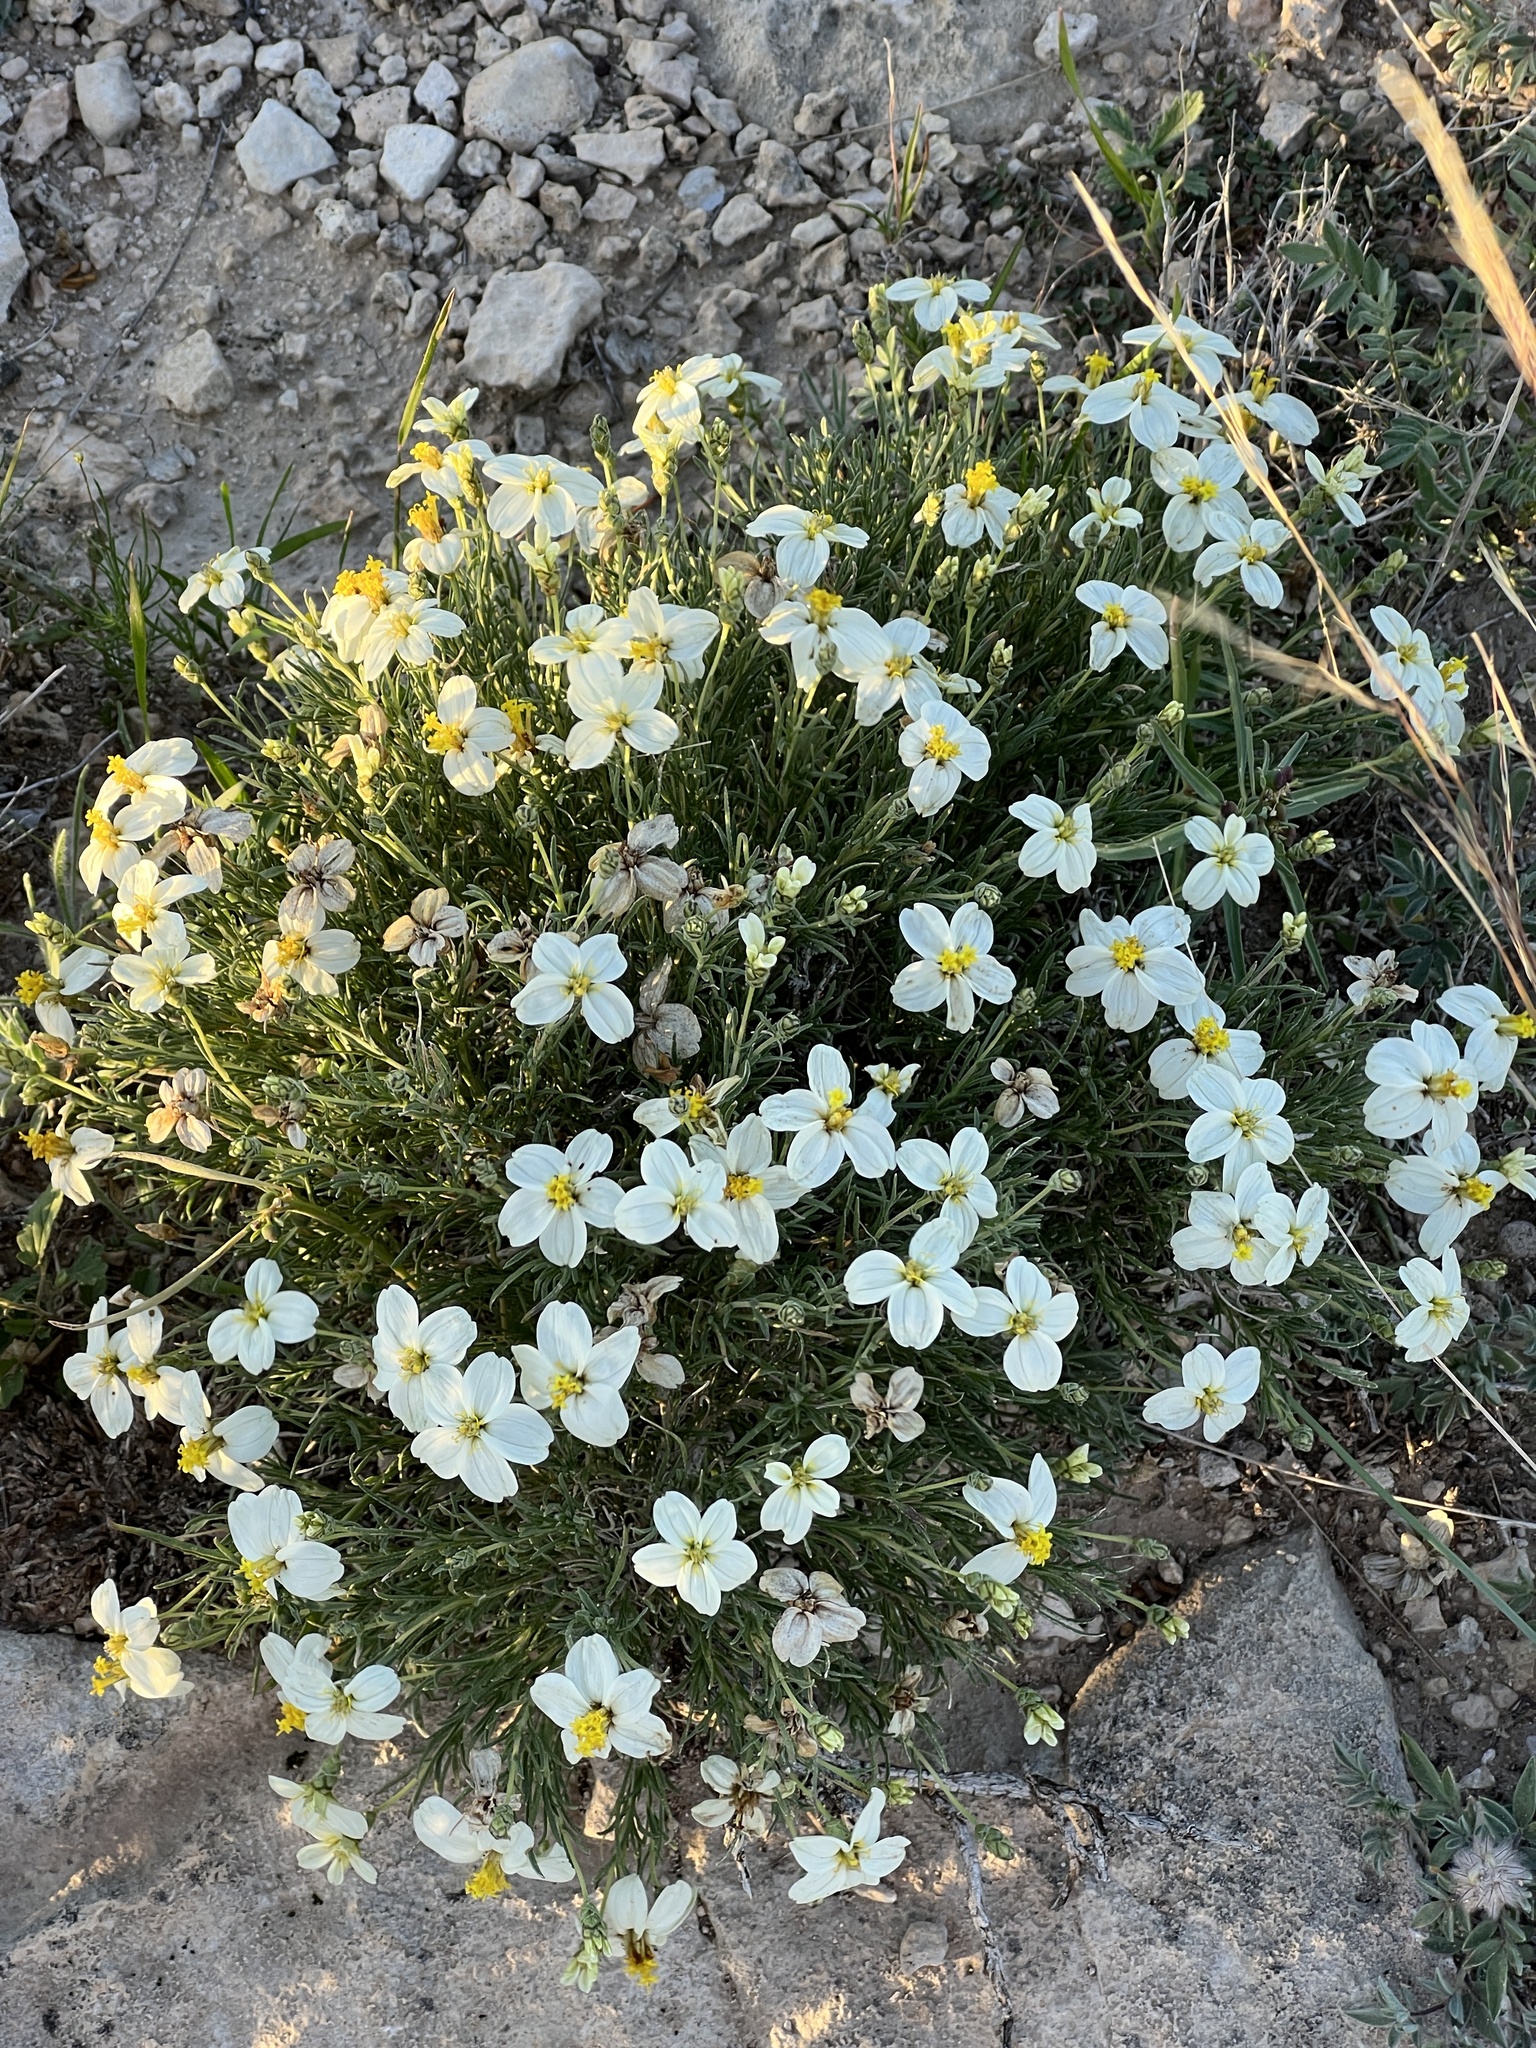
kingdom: Plantae
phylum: Tracheophyta
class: Magnoliopsida
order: Asterales
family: Asteraceae
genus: Zinnia
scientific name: Zinnia acerosa
